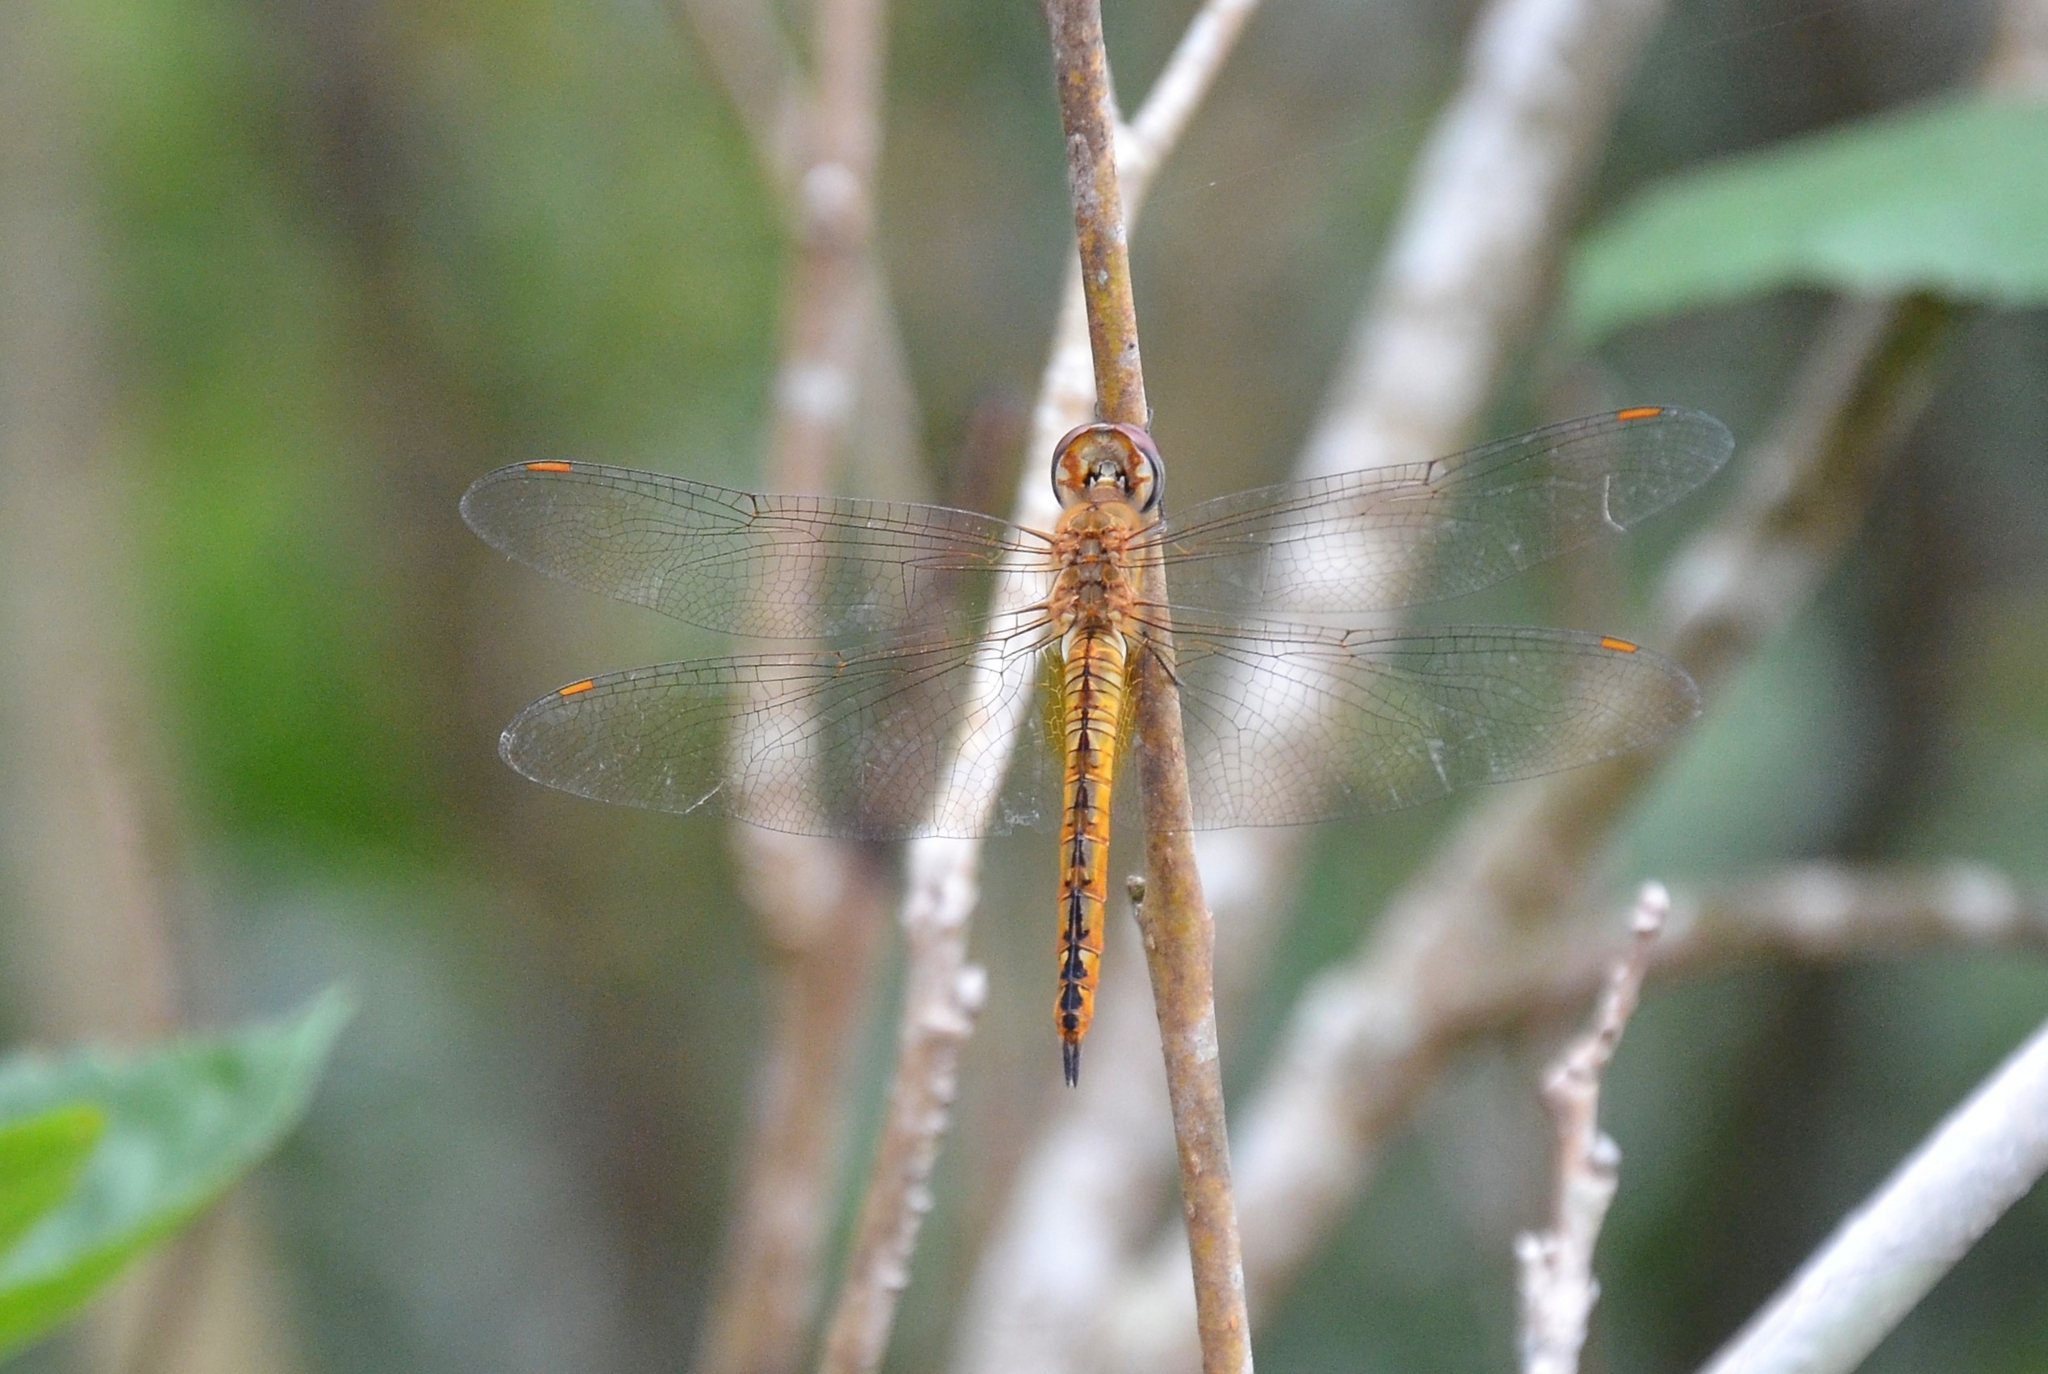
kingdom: Animalia
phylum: Arthropoda
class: Insecta
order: Odonata
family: Libellulidae
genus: Pantala
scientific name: Pantala flavescens
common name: Wandering glider
